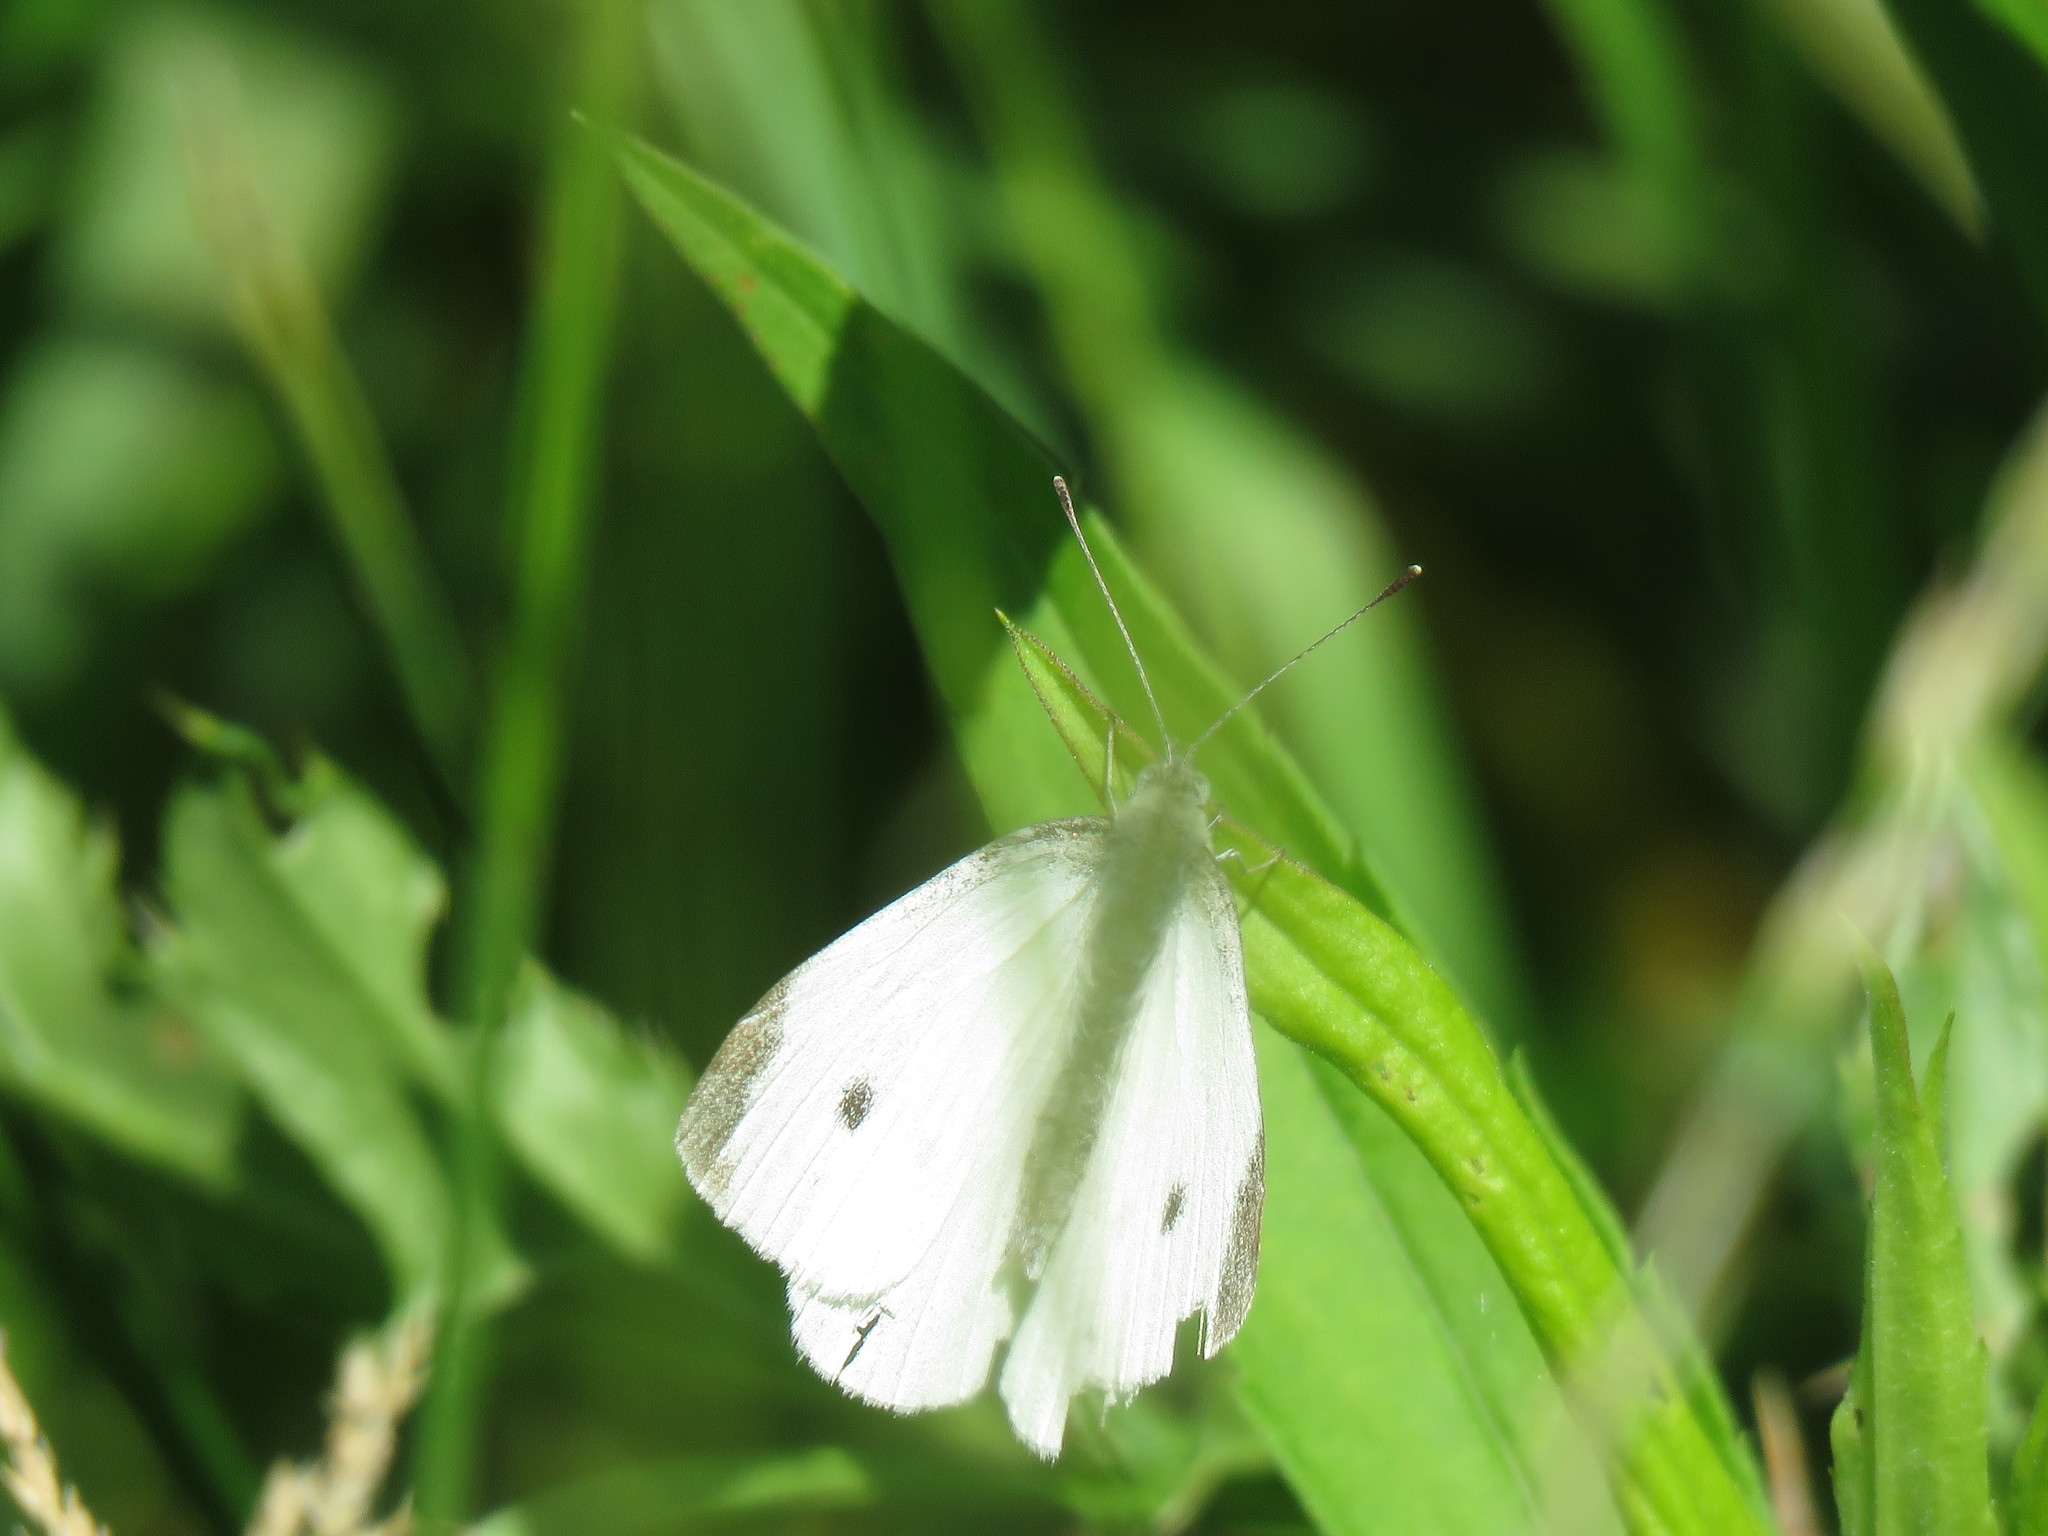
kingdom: Animalia
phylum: Arthropoda
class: Insecta
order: Lepidoptera
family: Pieridae
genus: Pieris
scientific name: Pieris rapae
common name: Small white
